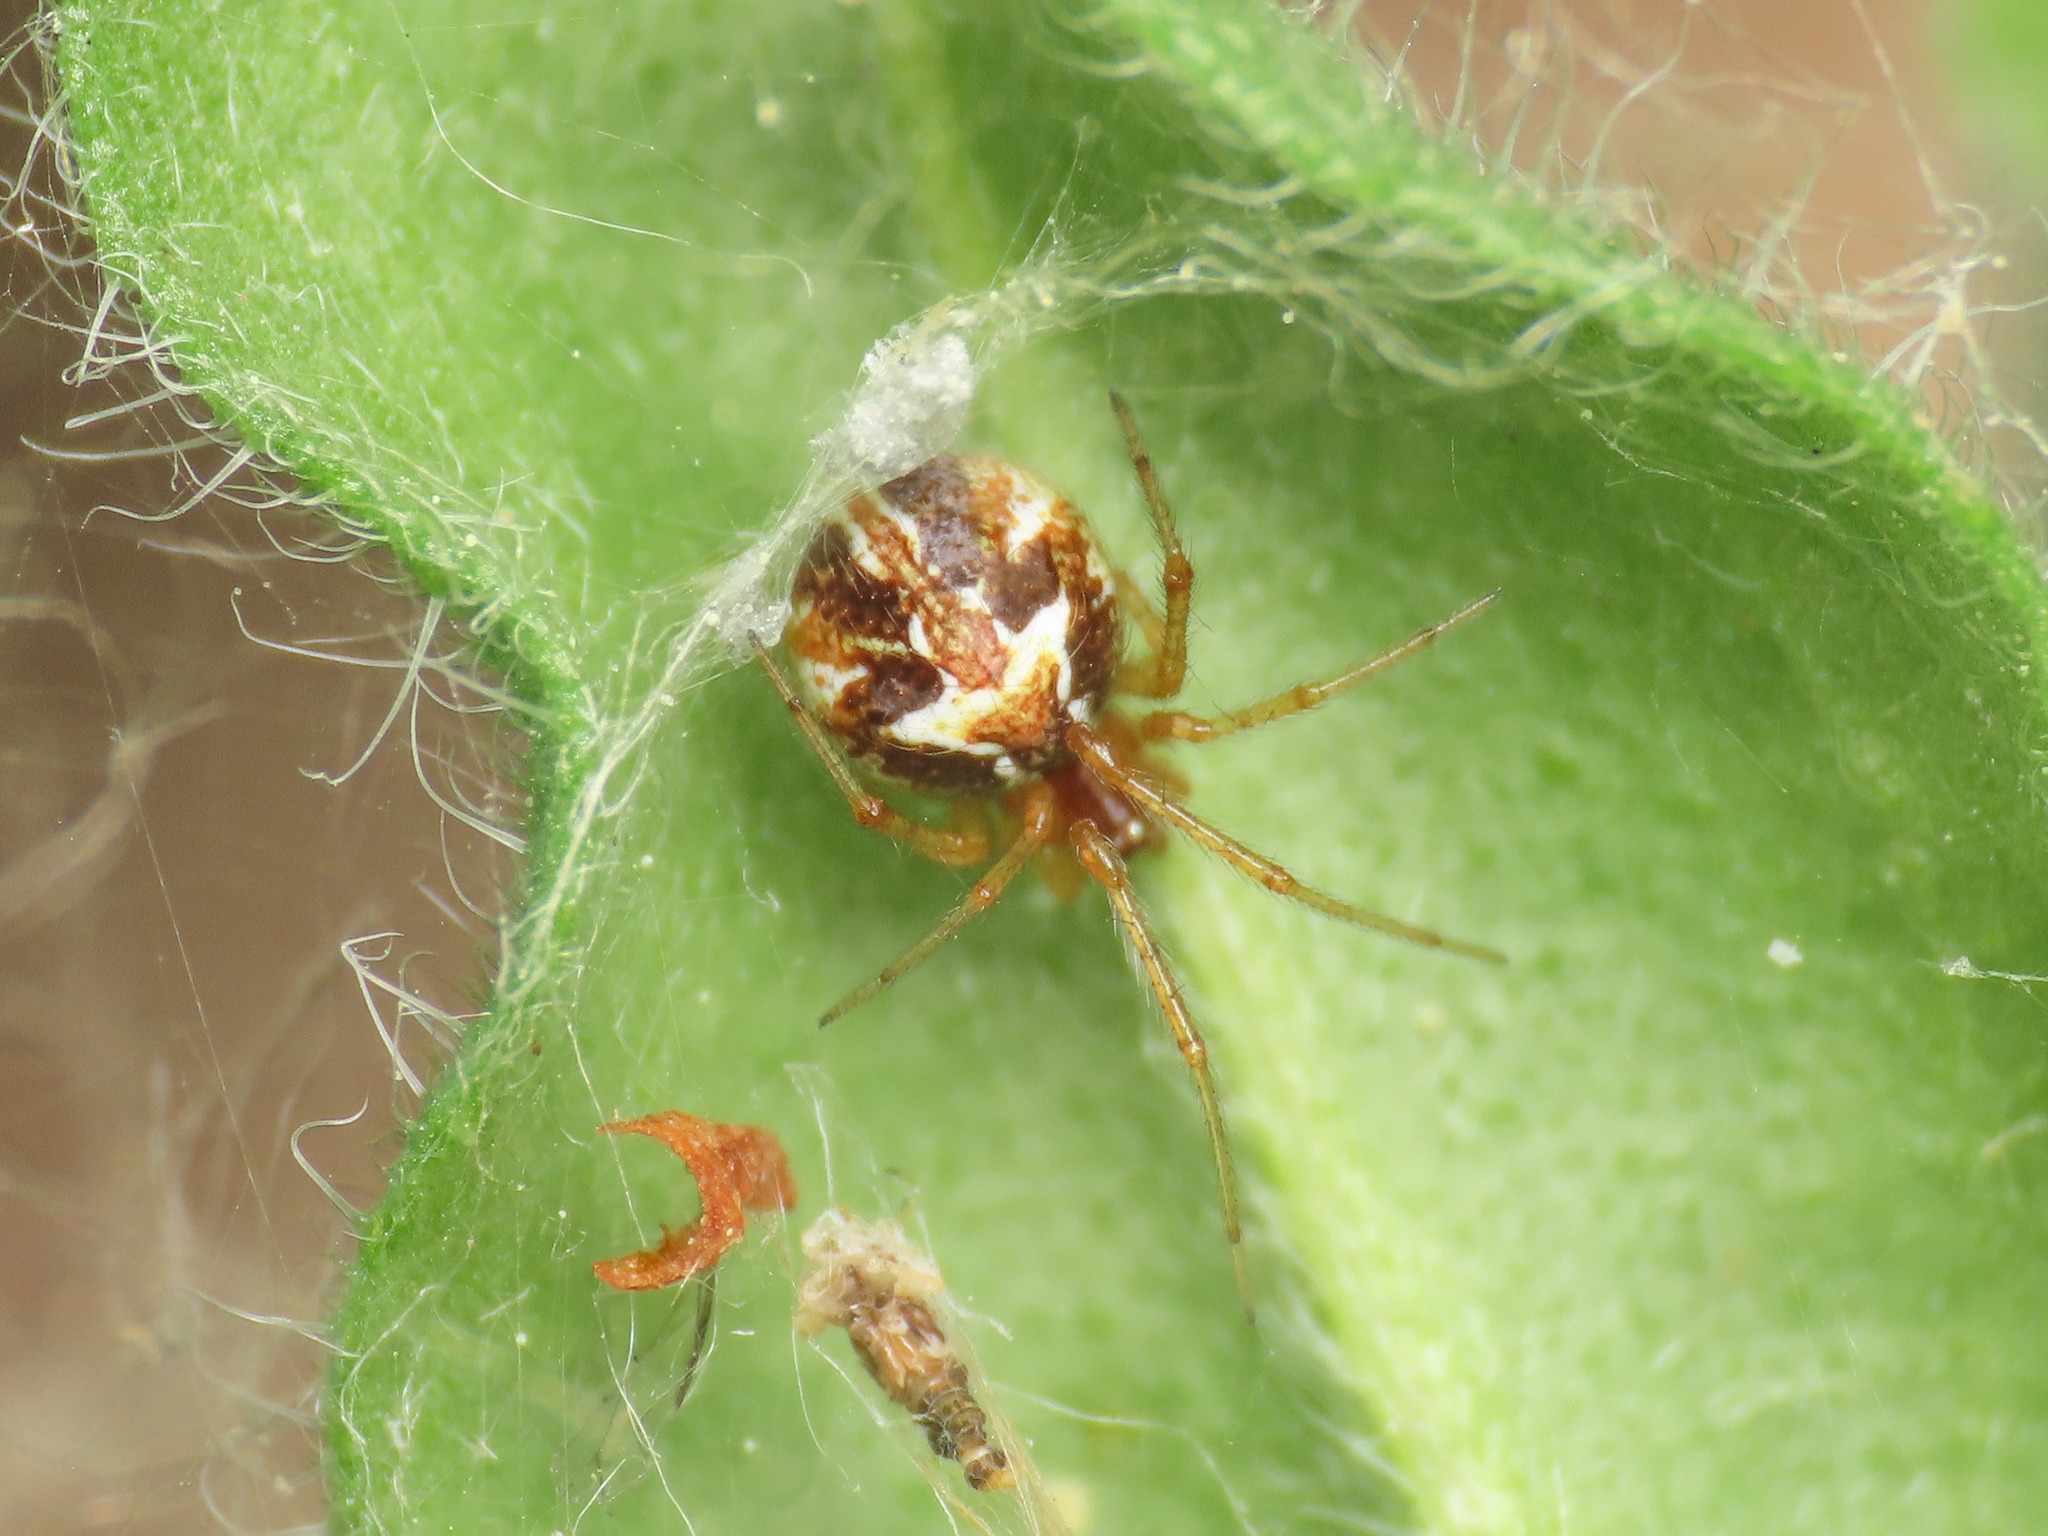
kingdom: Animalia
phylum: Arthropoda
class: Arachnida
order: Araneae
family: Theridiidae
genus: Simitidion
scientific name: Simitidion simile
